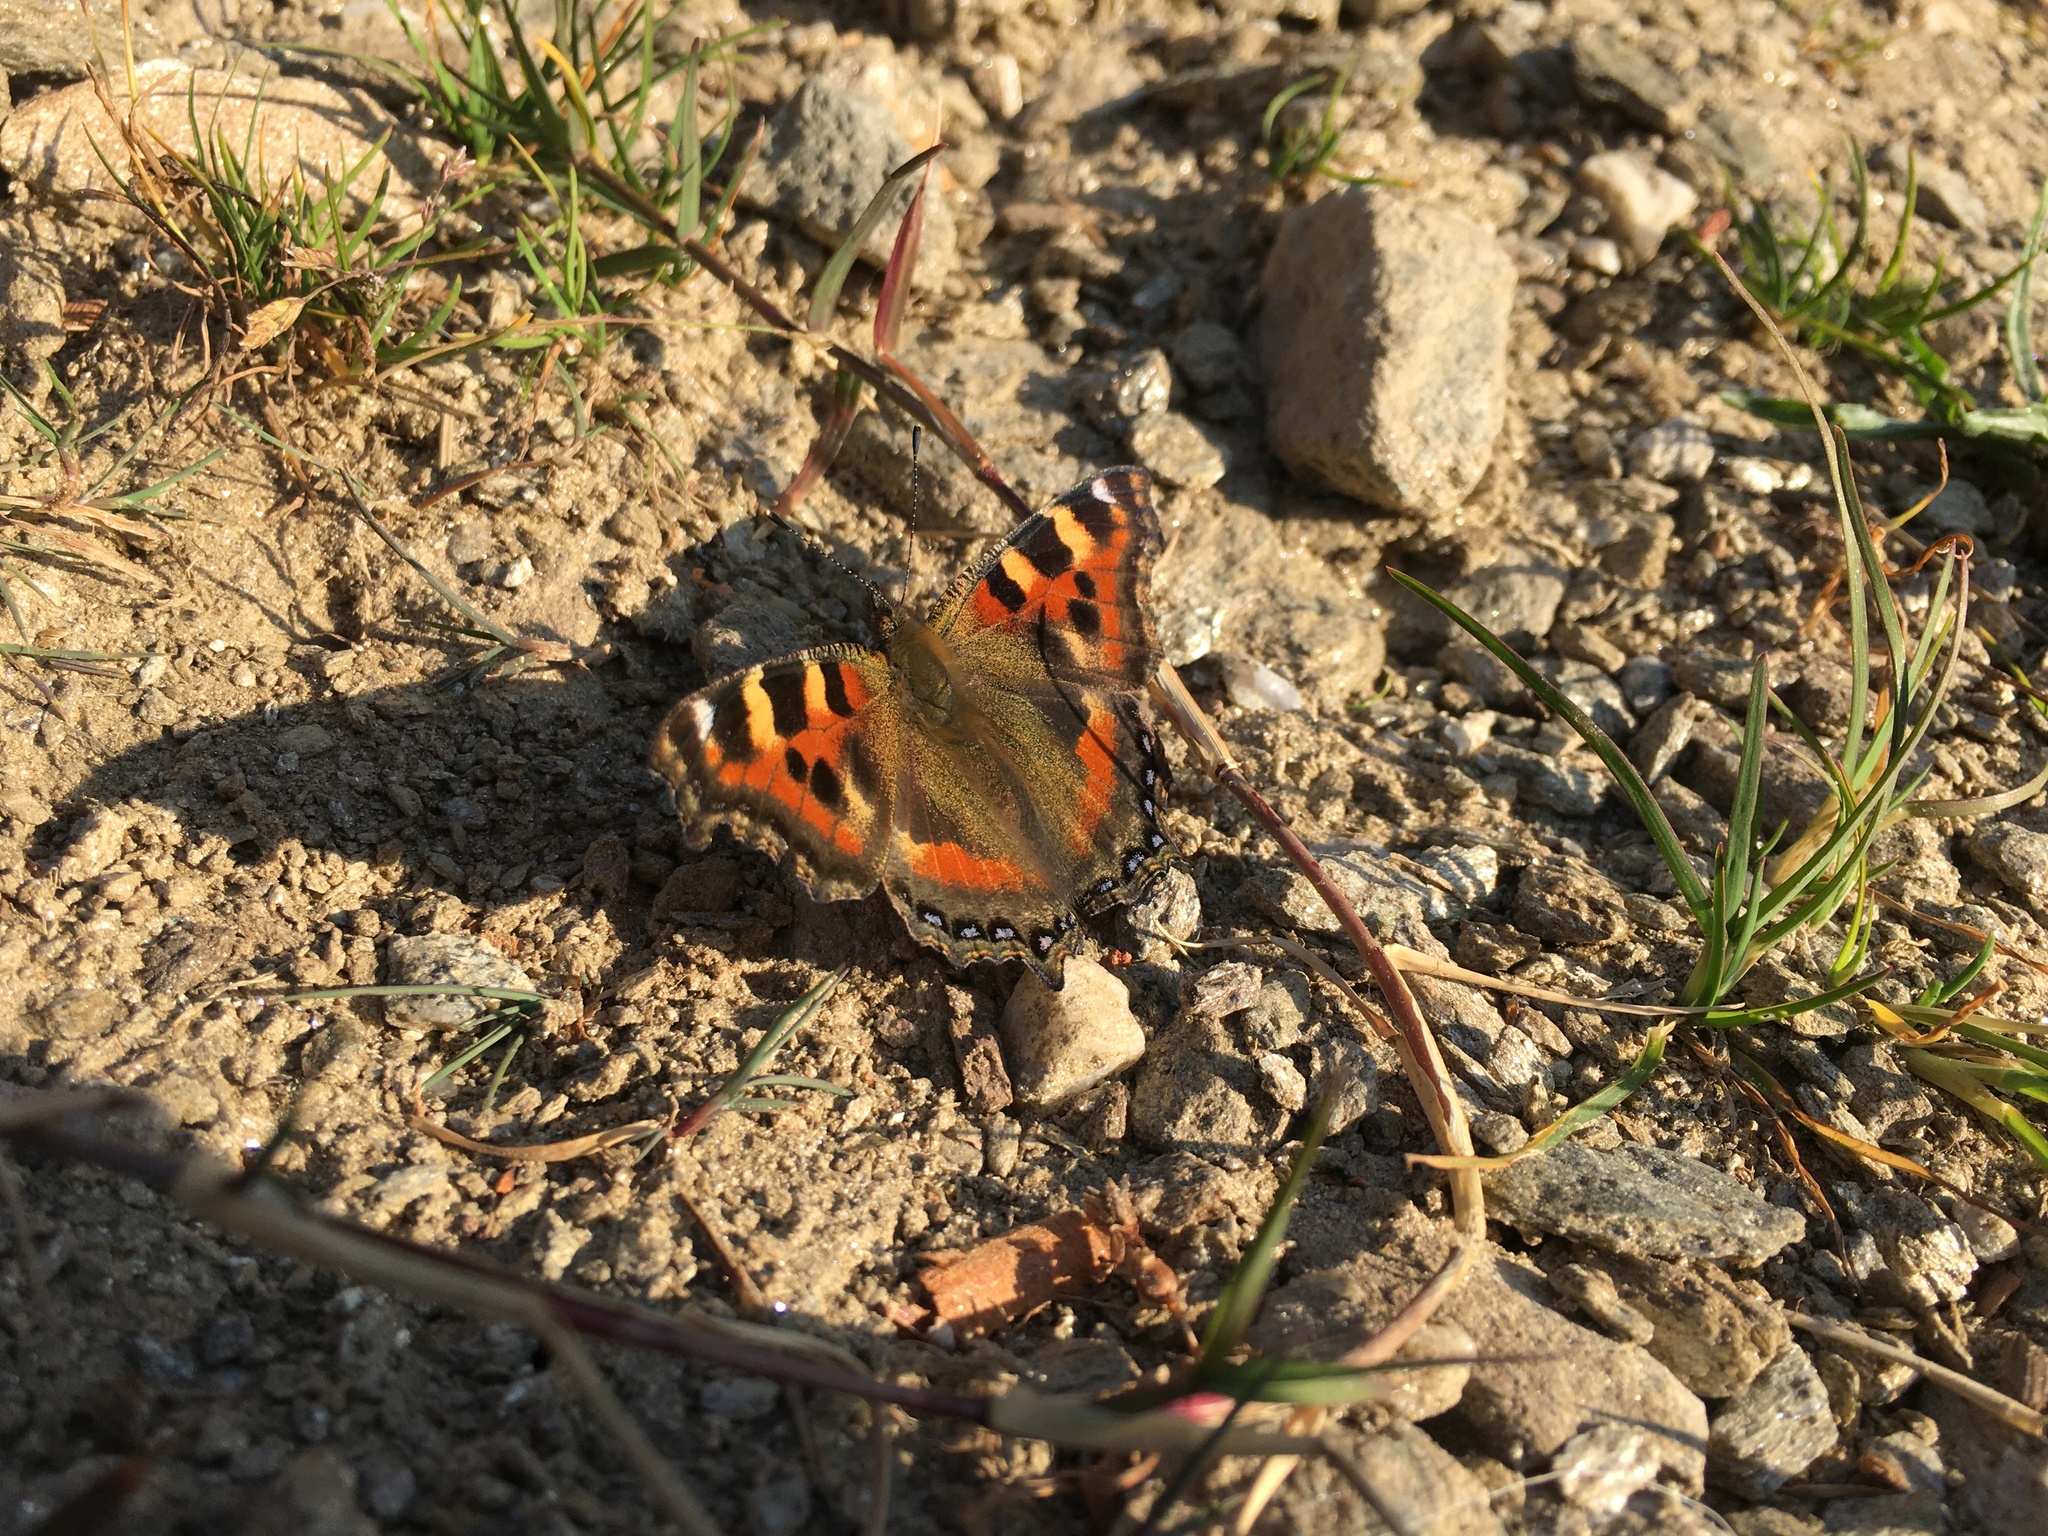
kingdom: Animalia
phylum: Arthropoda
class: Insecta
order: Lepidoptera
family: Nymphalidae
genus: Aglais
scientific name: Aglais caschmirensis
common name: Indian tortoiseshell
